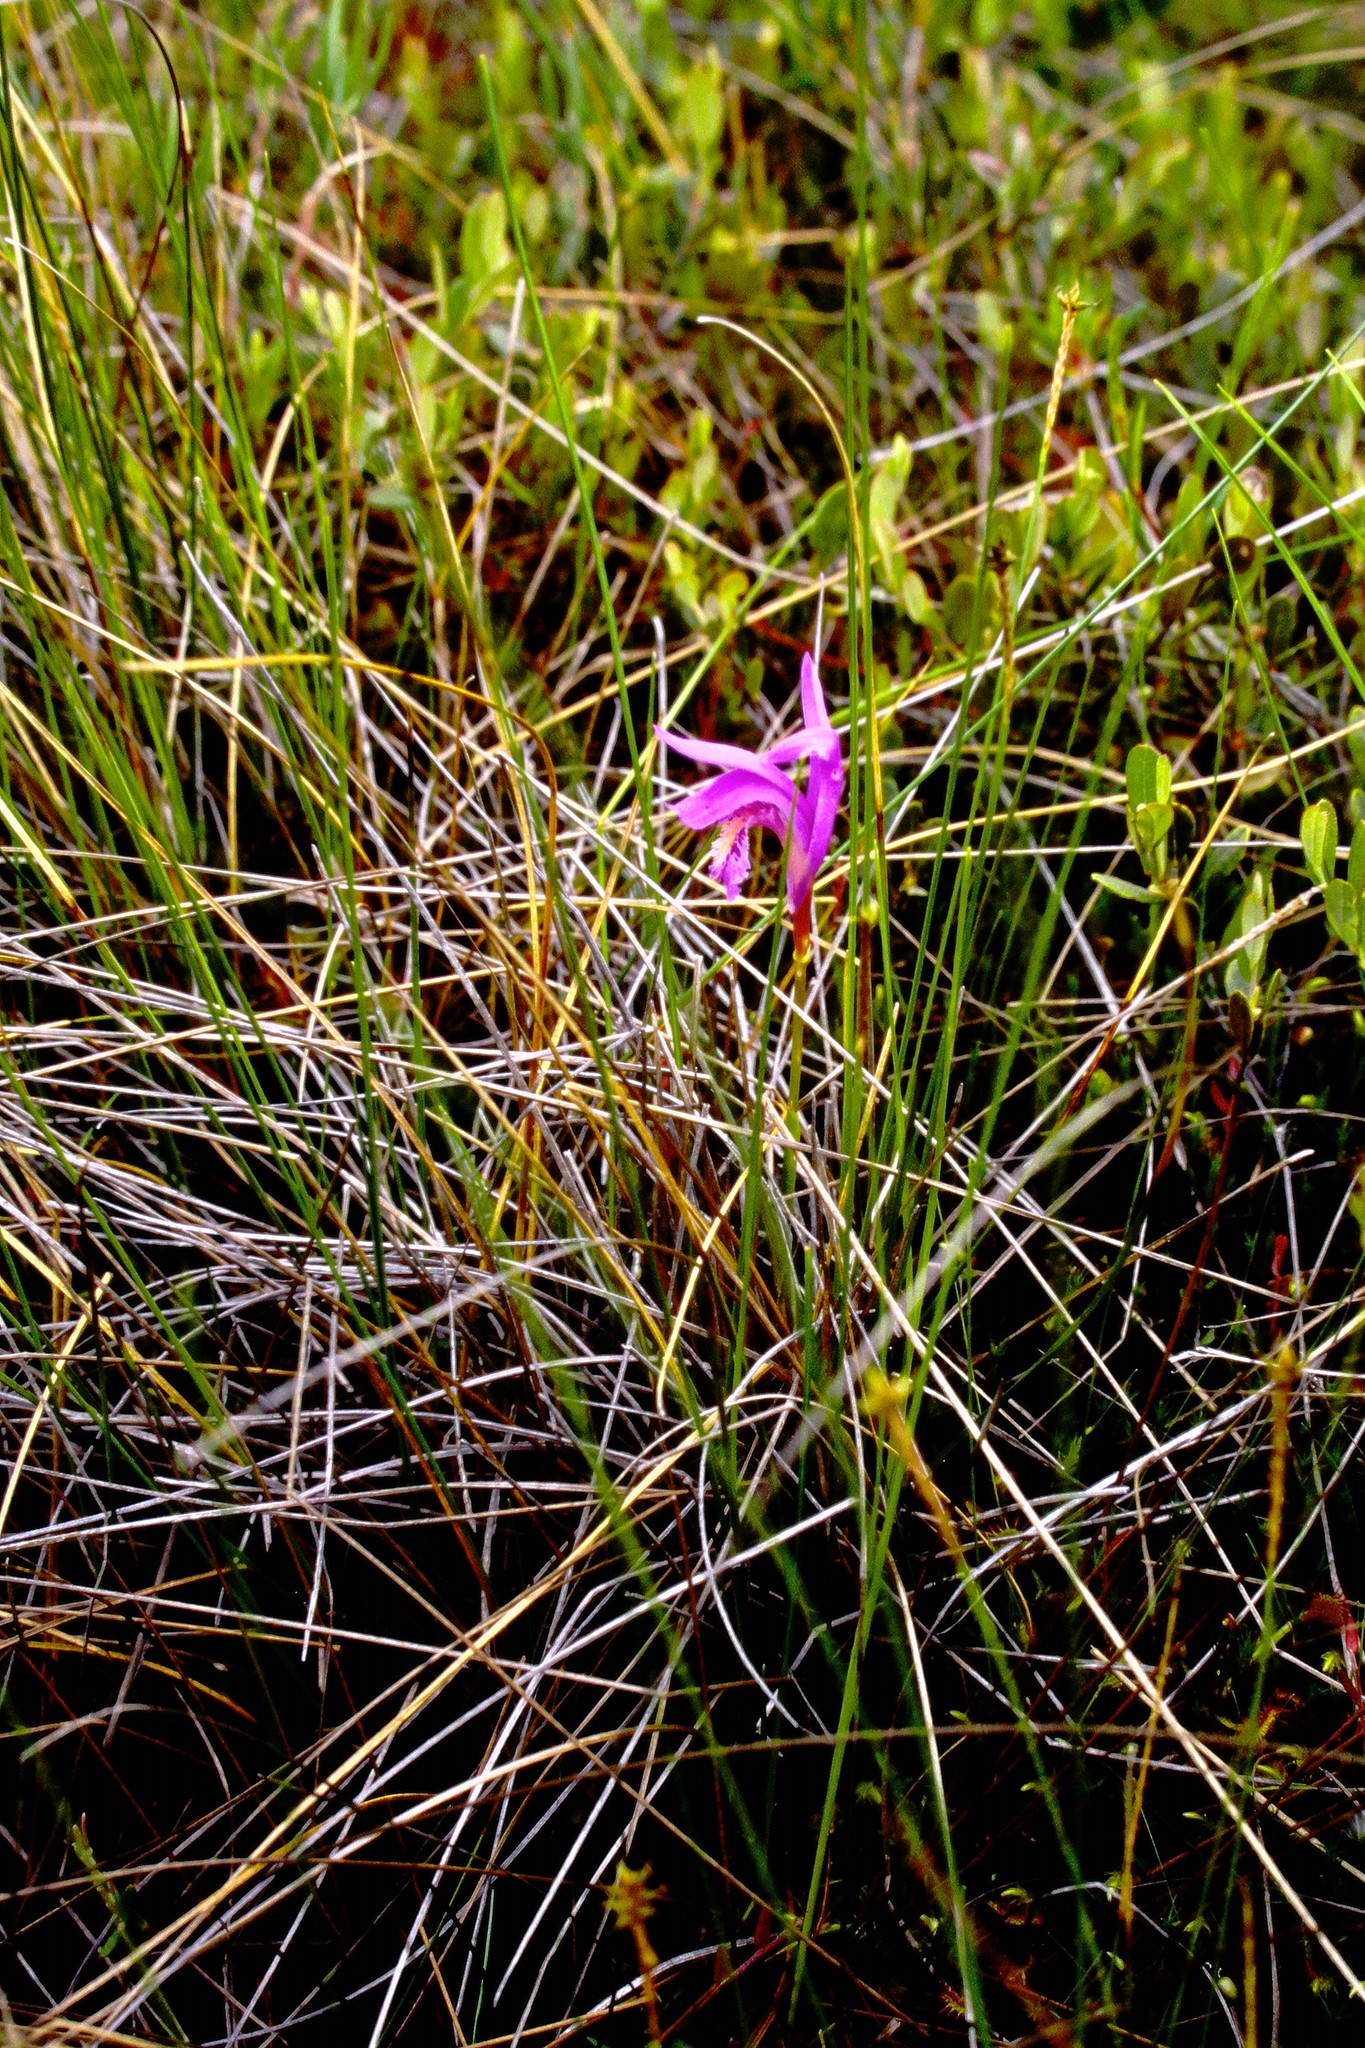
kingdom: Plantae
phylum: Tracheophyta
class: Liliopsida
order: Asparagales
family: Orchidaceae
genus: Arethusa
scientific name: Arethusa bulbosa
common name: Arethusa
